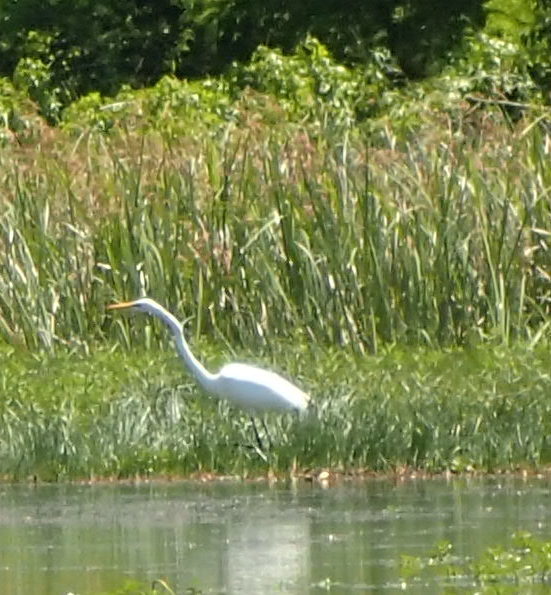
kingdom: Animalia
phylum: Chordata
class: Aves
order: Pelecaniformes
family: Ardeidae
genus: Ardea
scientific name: Ardea alba
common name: Great egret
